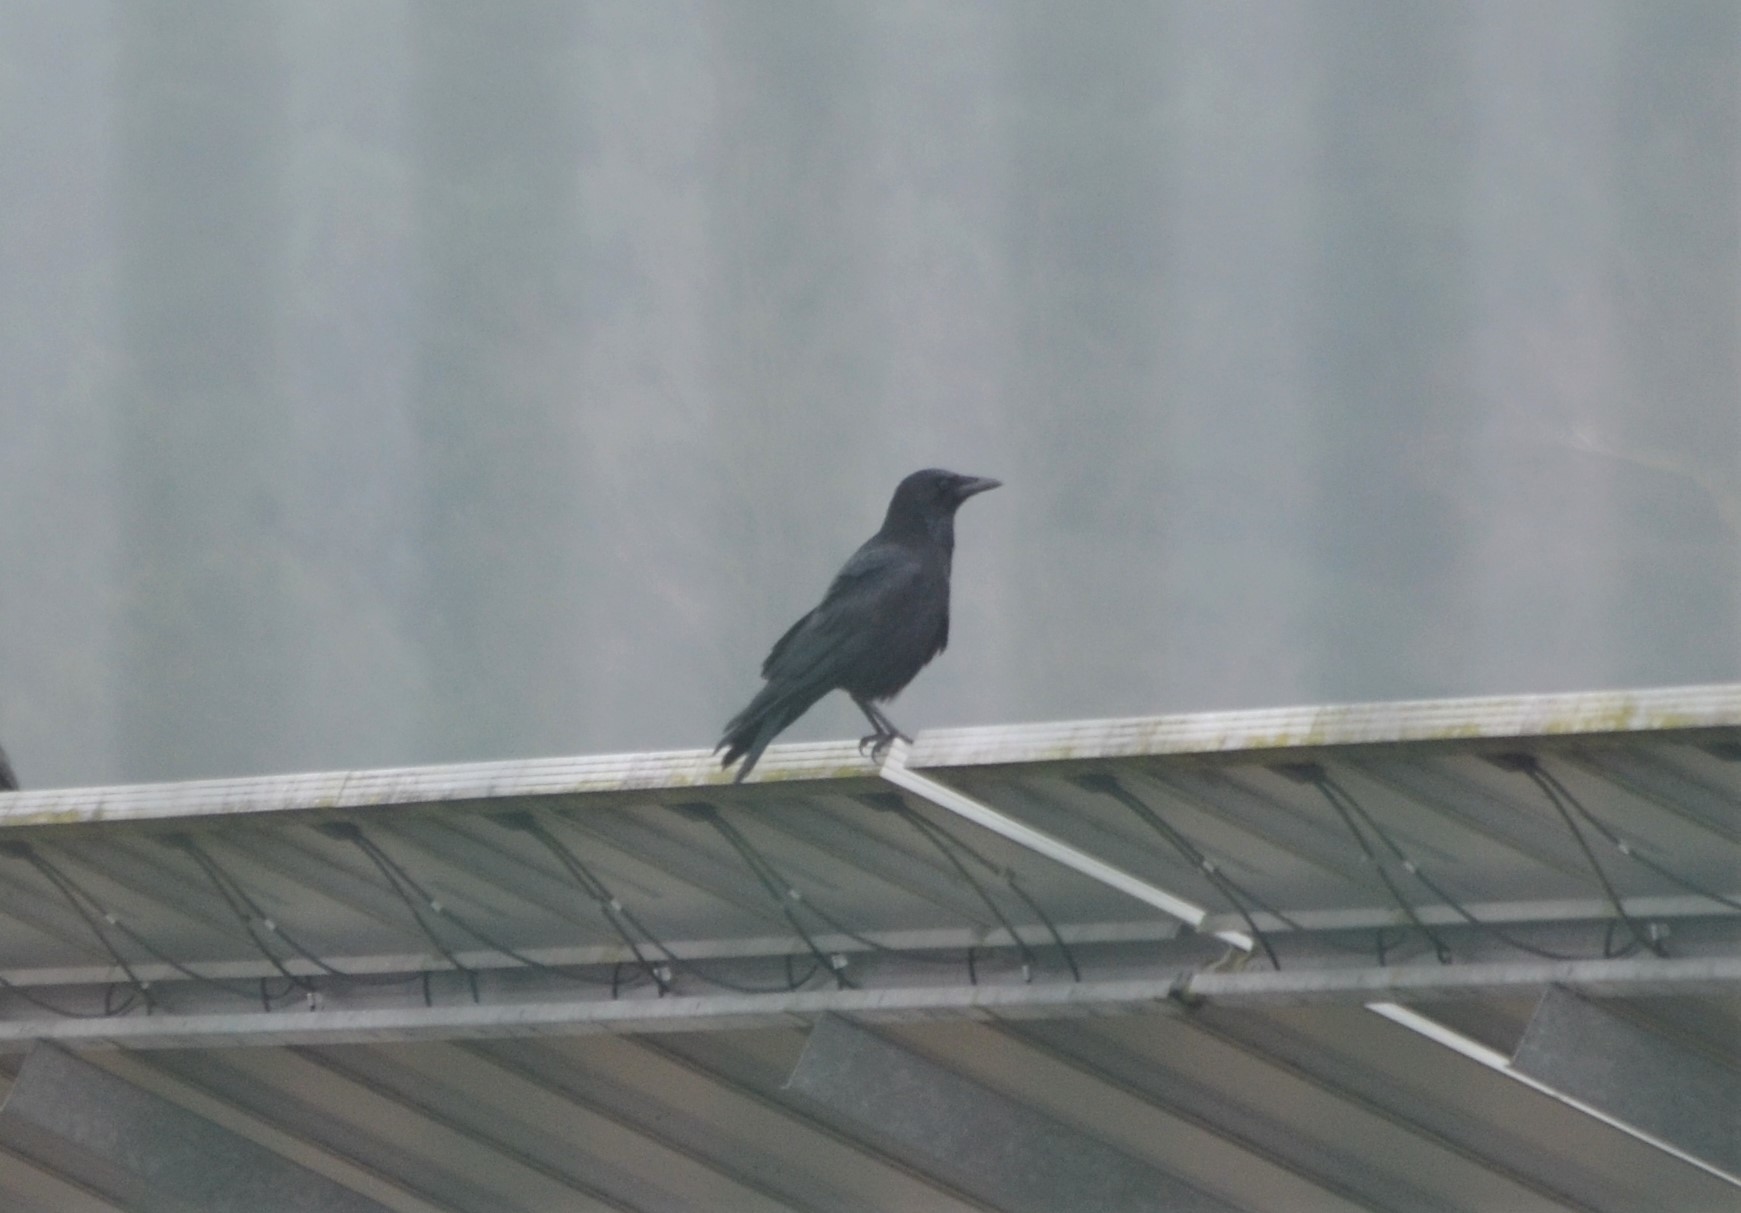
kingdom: Animalia
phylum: Chordata
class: Aves
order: Passeriformes
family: Corvidae
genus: Corvus
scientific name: Corvus corone
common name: Carrion crow
